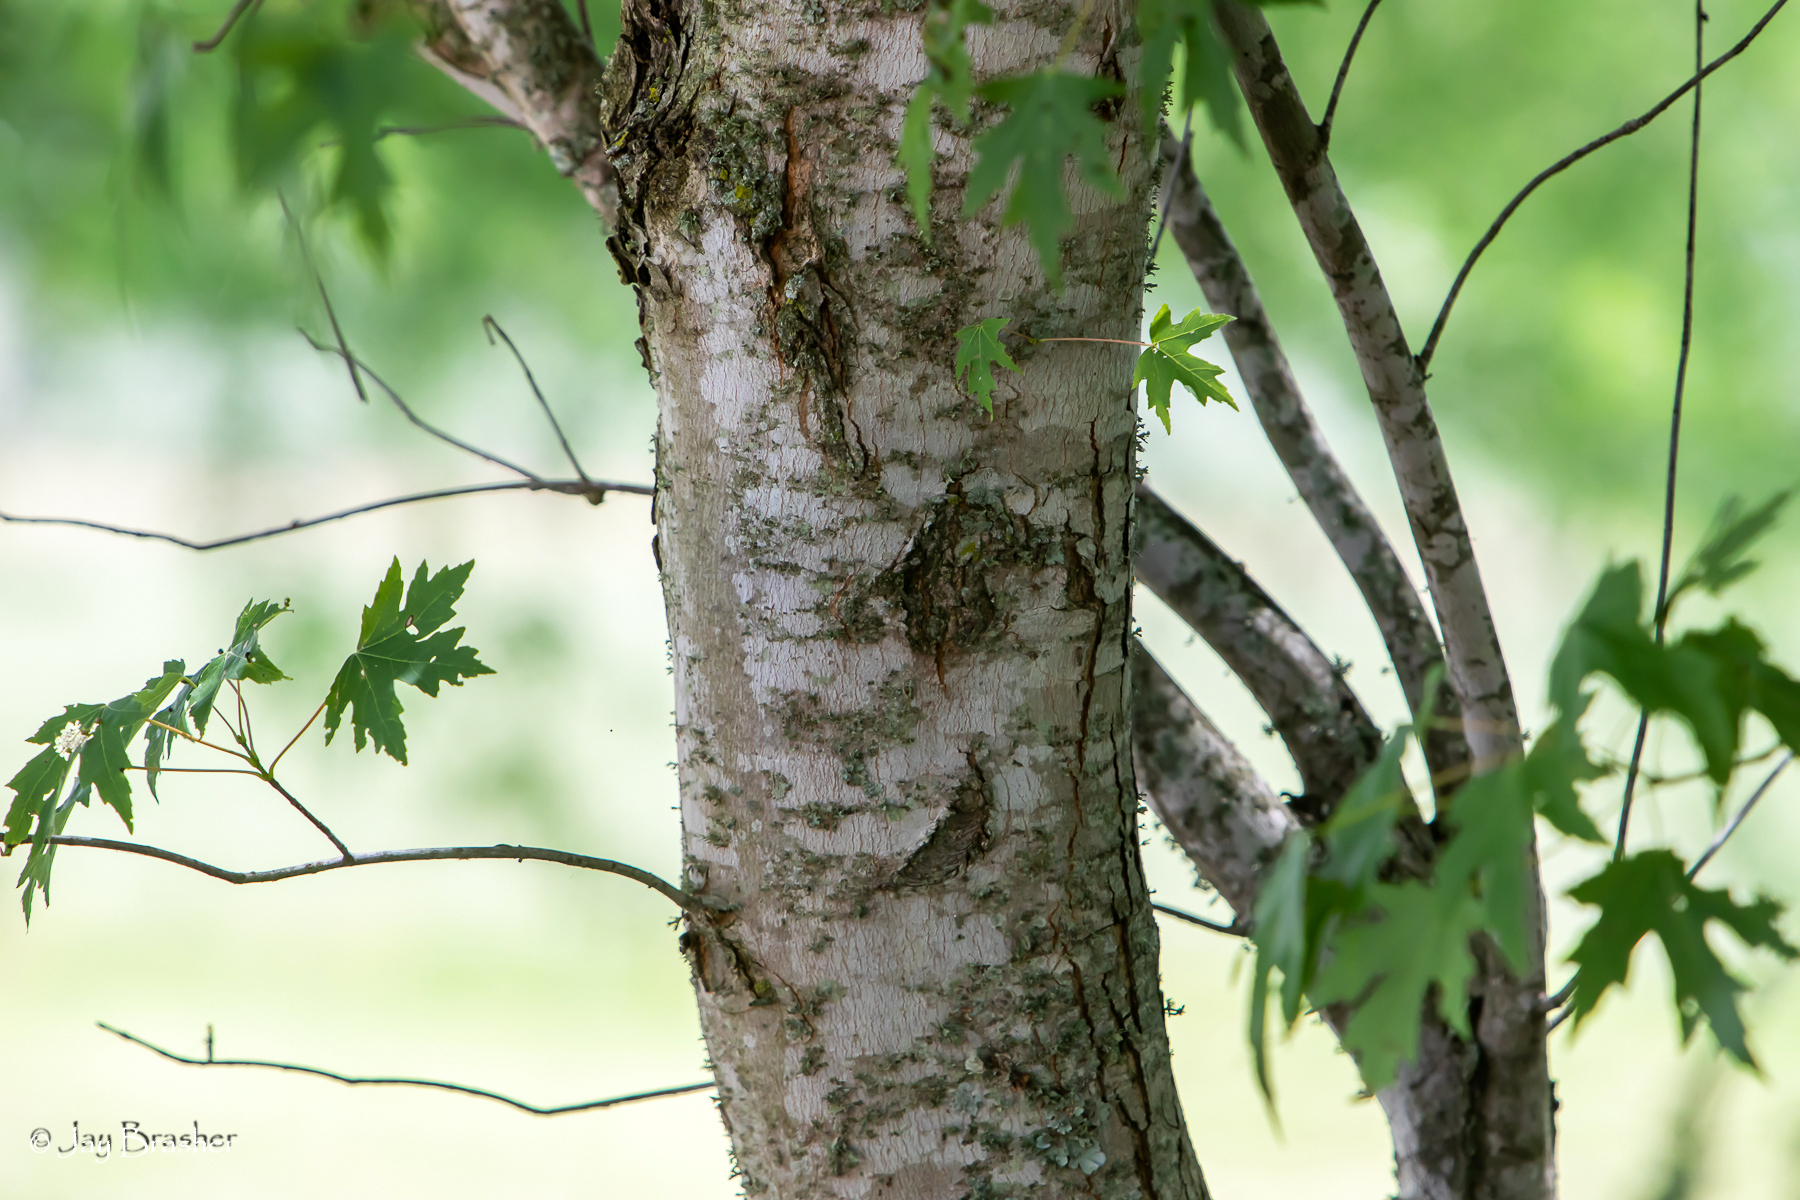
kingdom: Plantae
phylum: Tracheophyta
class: Magnoliopsida
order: Sapindales
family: Sapindaceae
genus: Acer
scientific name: Acer saccharinum
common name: Silver maple
